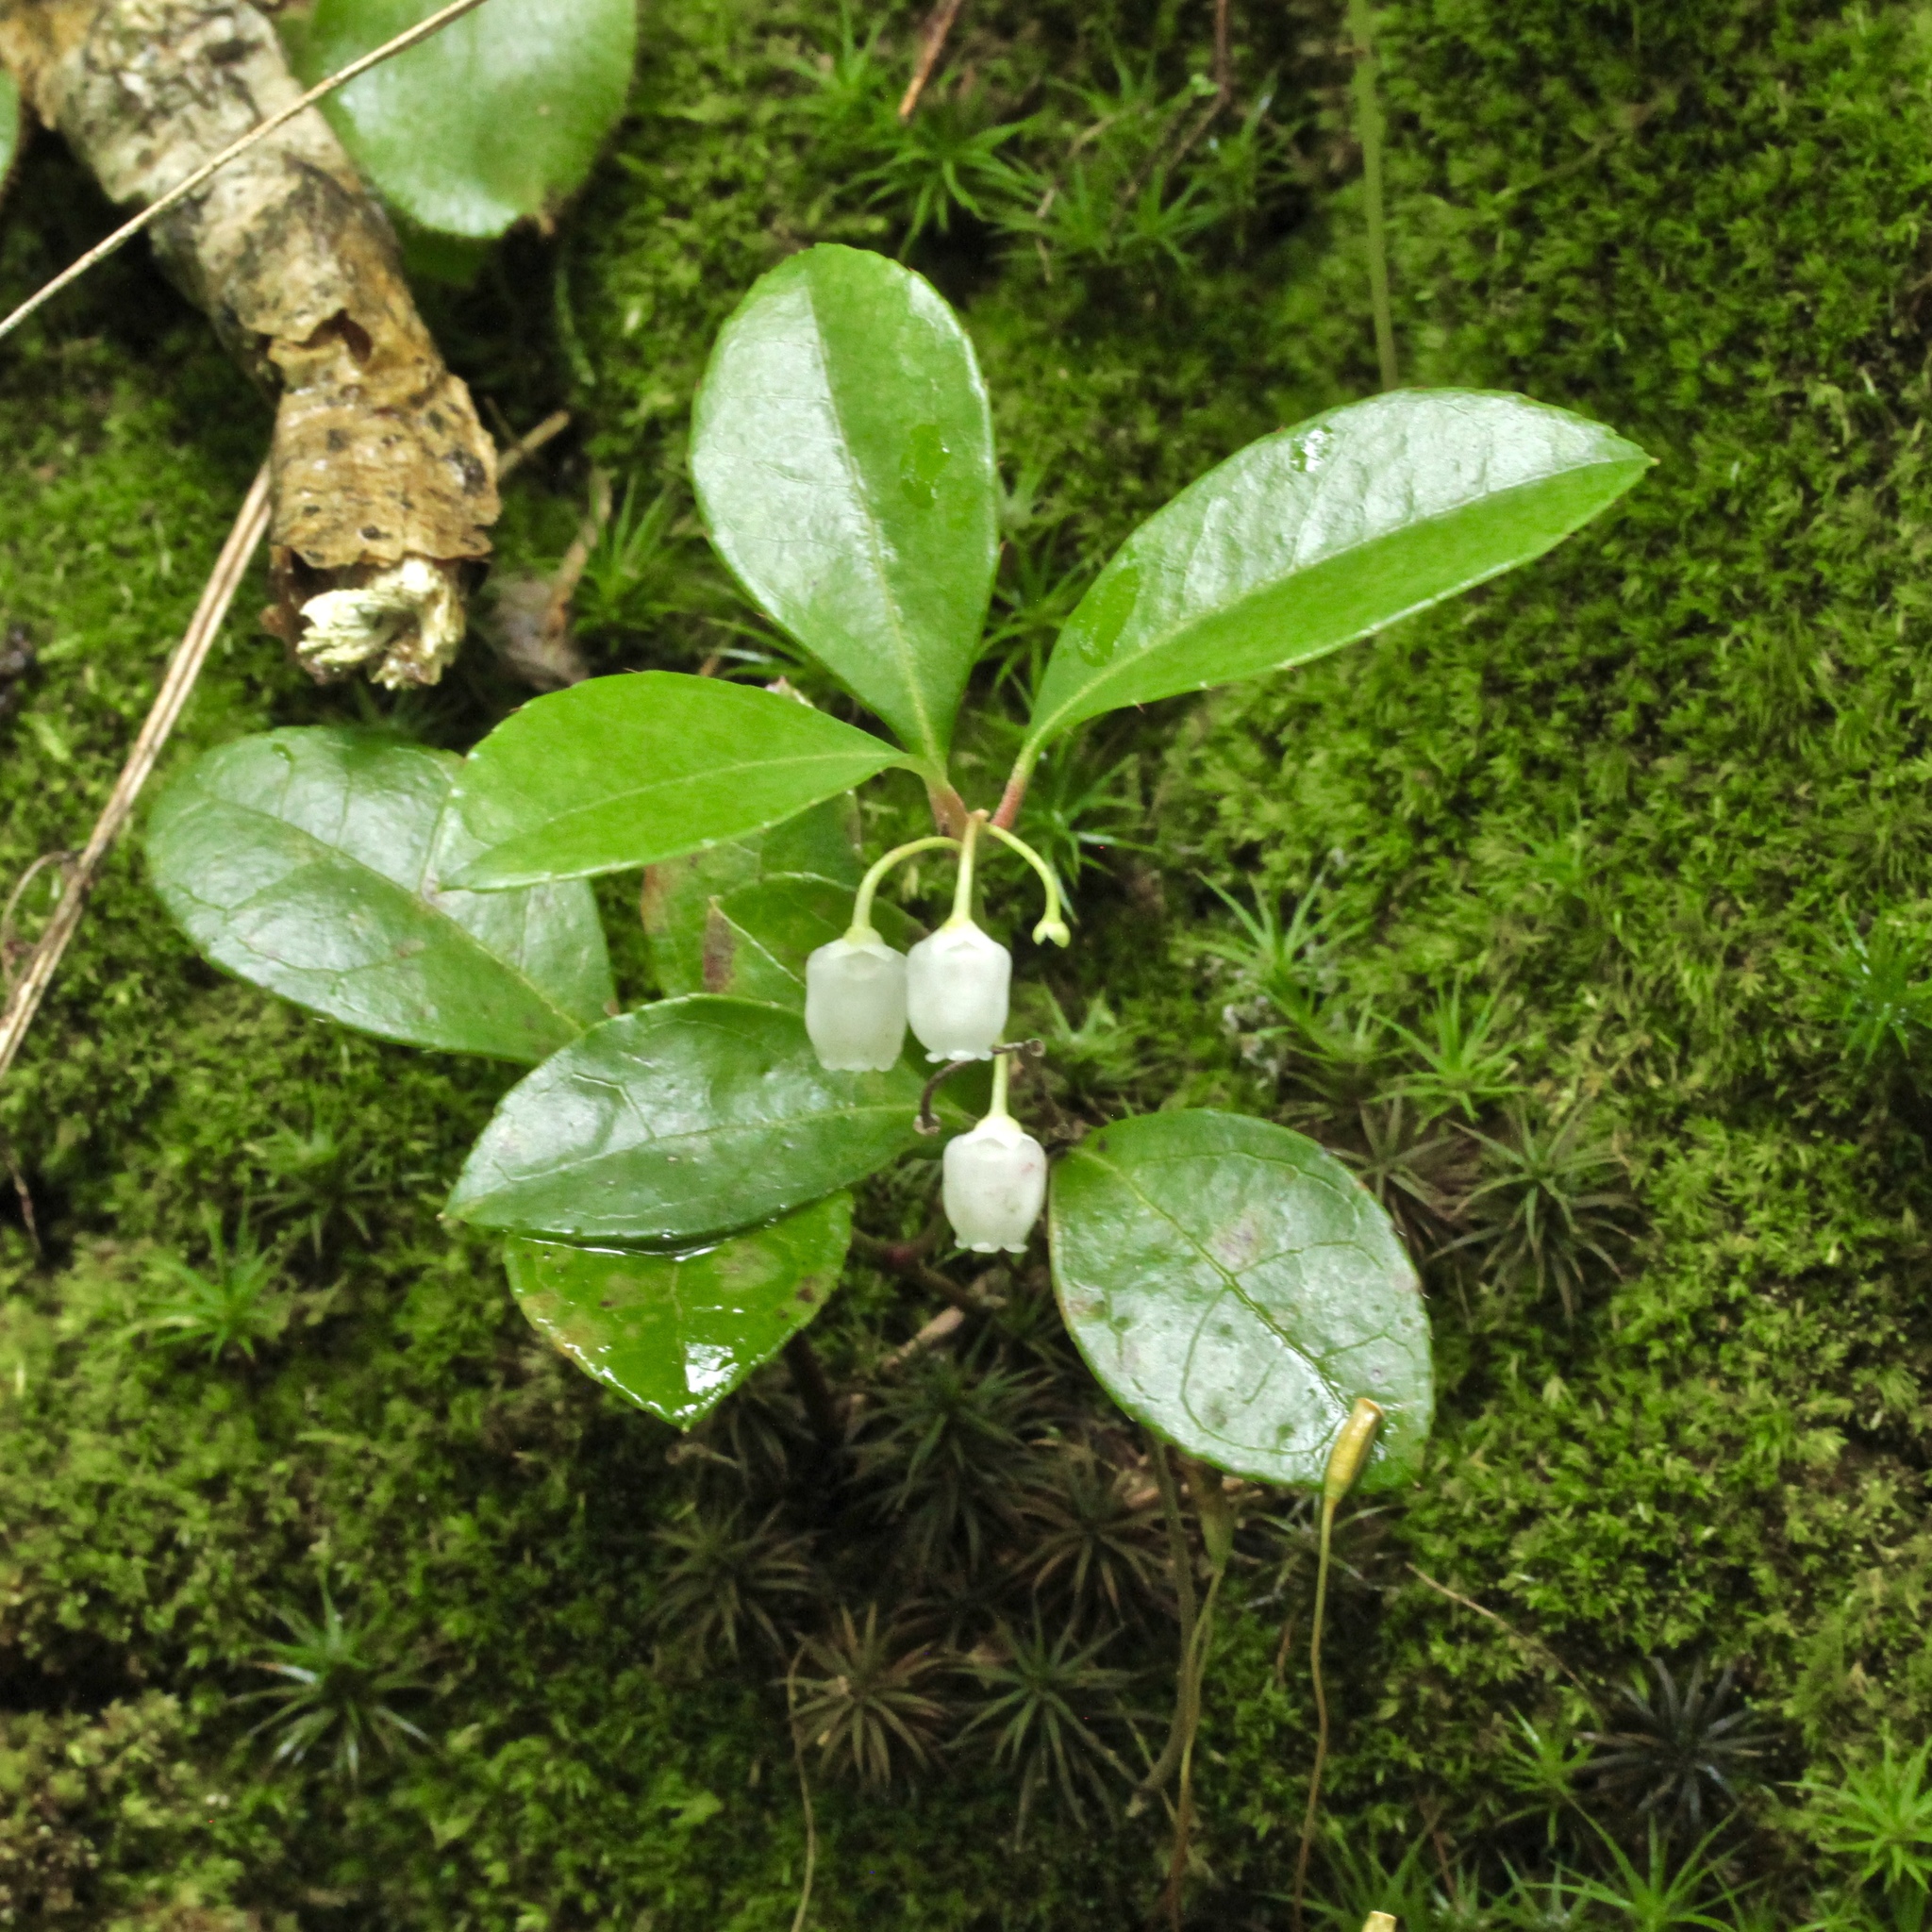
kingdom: Plantae
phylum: Tracheophyta
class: Magnoliopsida
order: Ericales
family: Ericaceae
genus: Gaultheria
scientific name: Gaultheria procumbens
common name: Checkerberry
